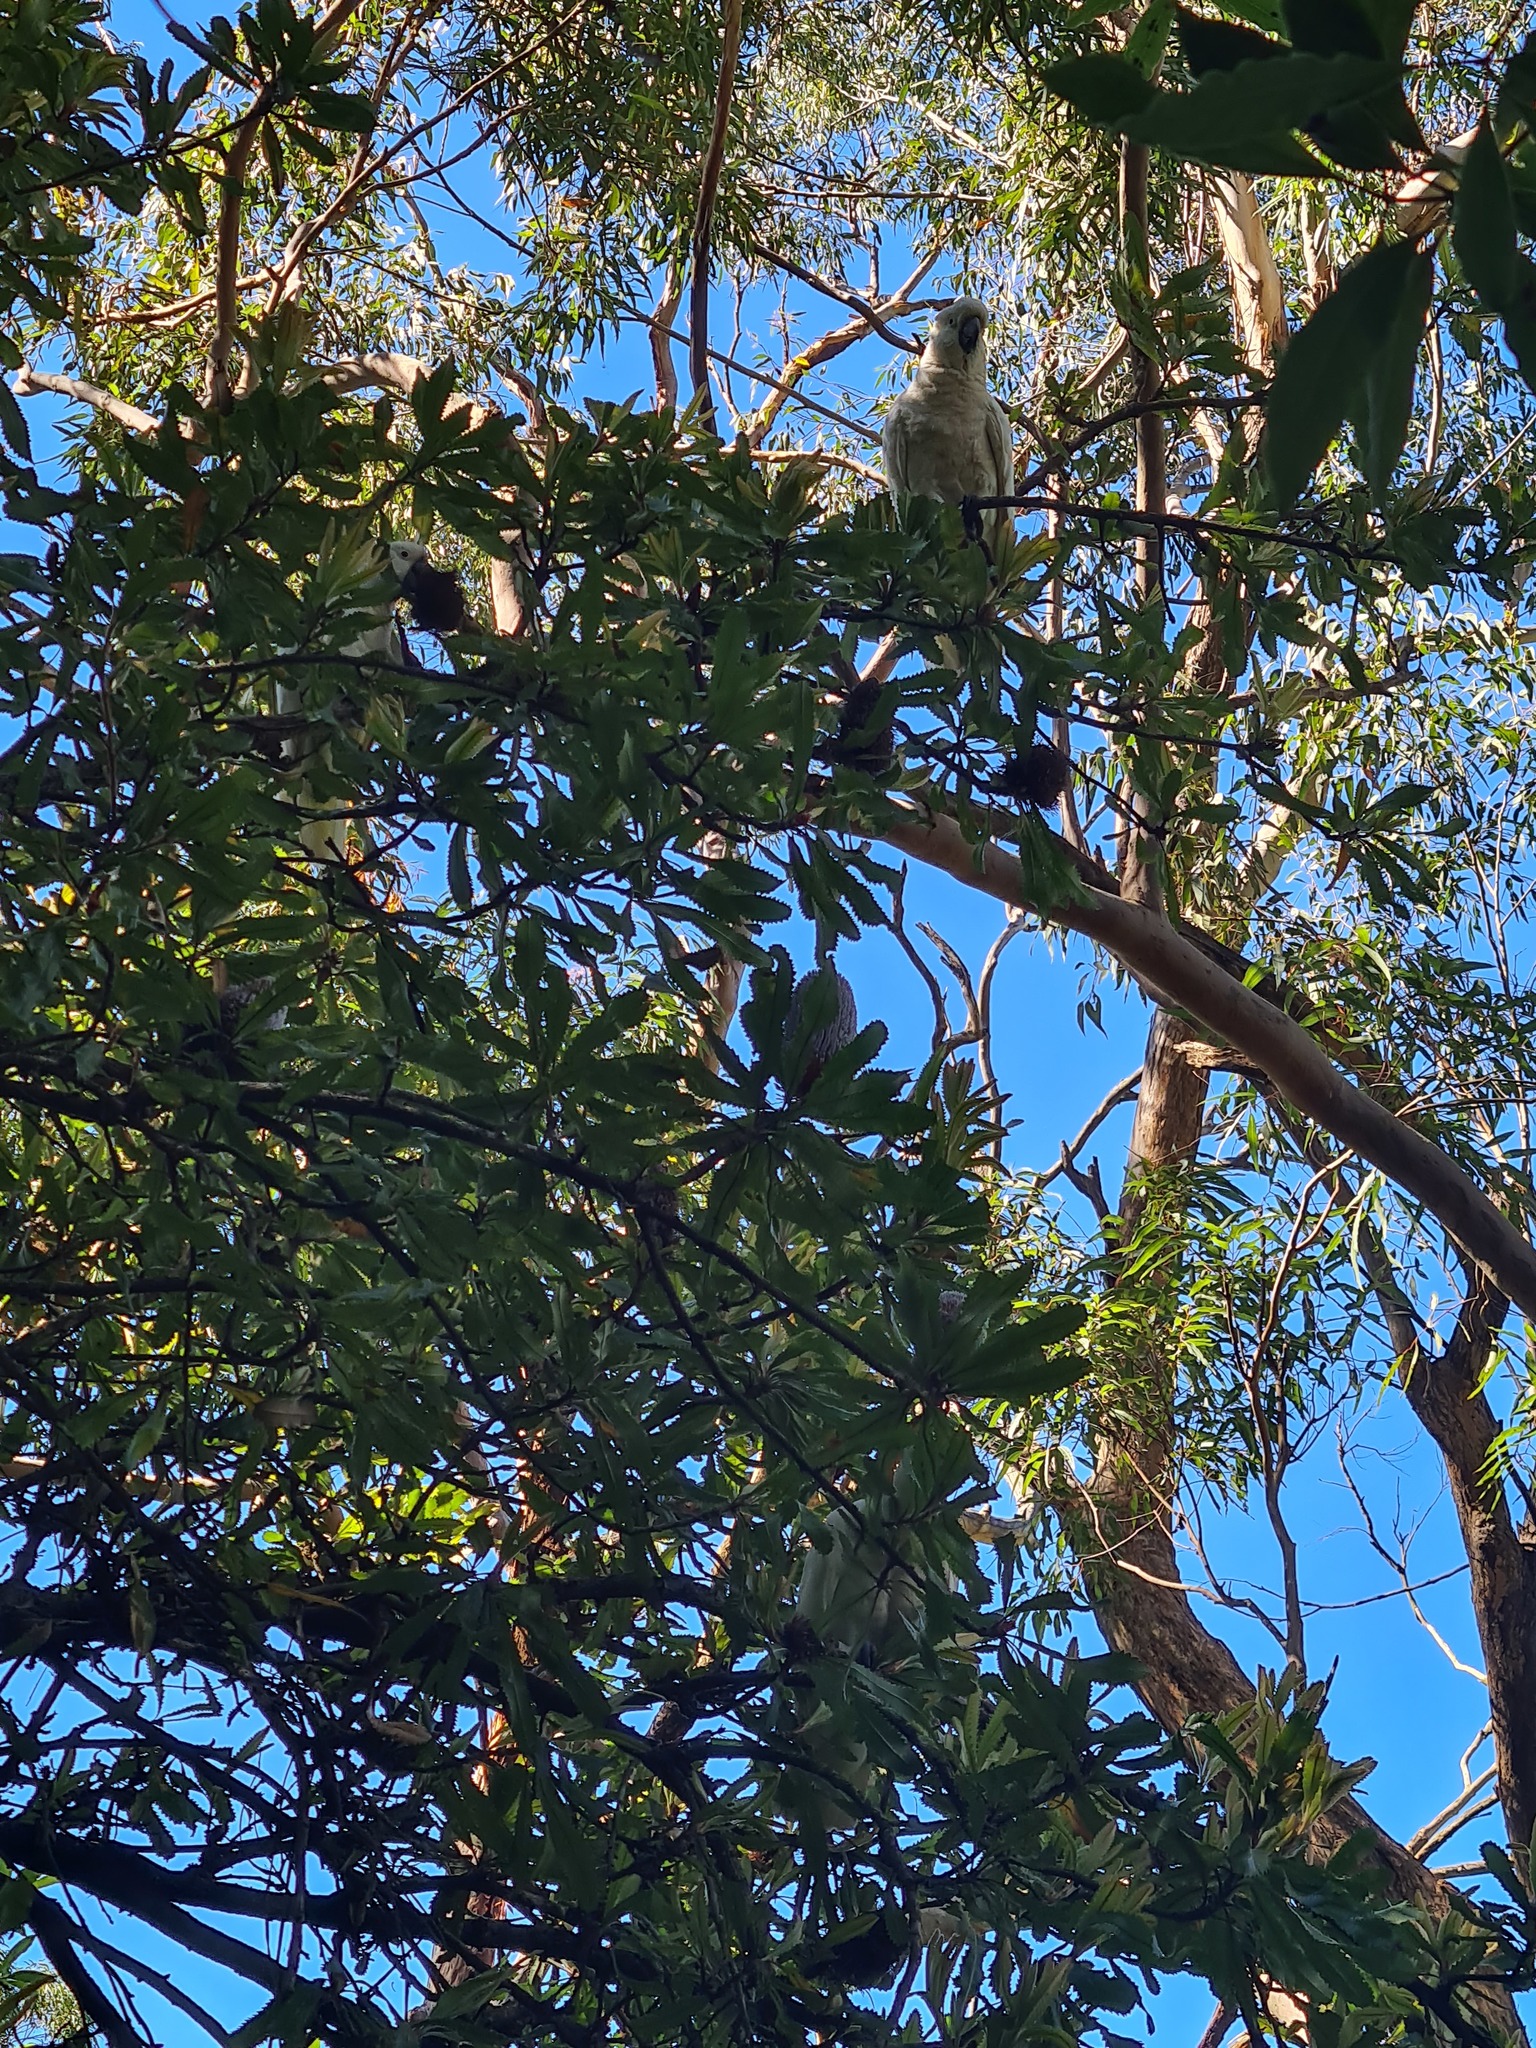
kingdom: Animalia
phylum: Chordata
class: Aves
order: Psittaciformes
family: Psittacidae
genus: Cacatua
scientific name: Cacatua galerita
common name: Sulphur-crested cockatoo
